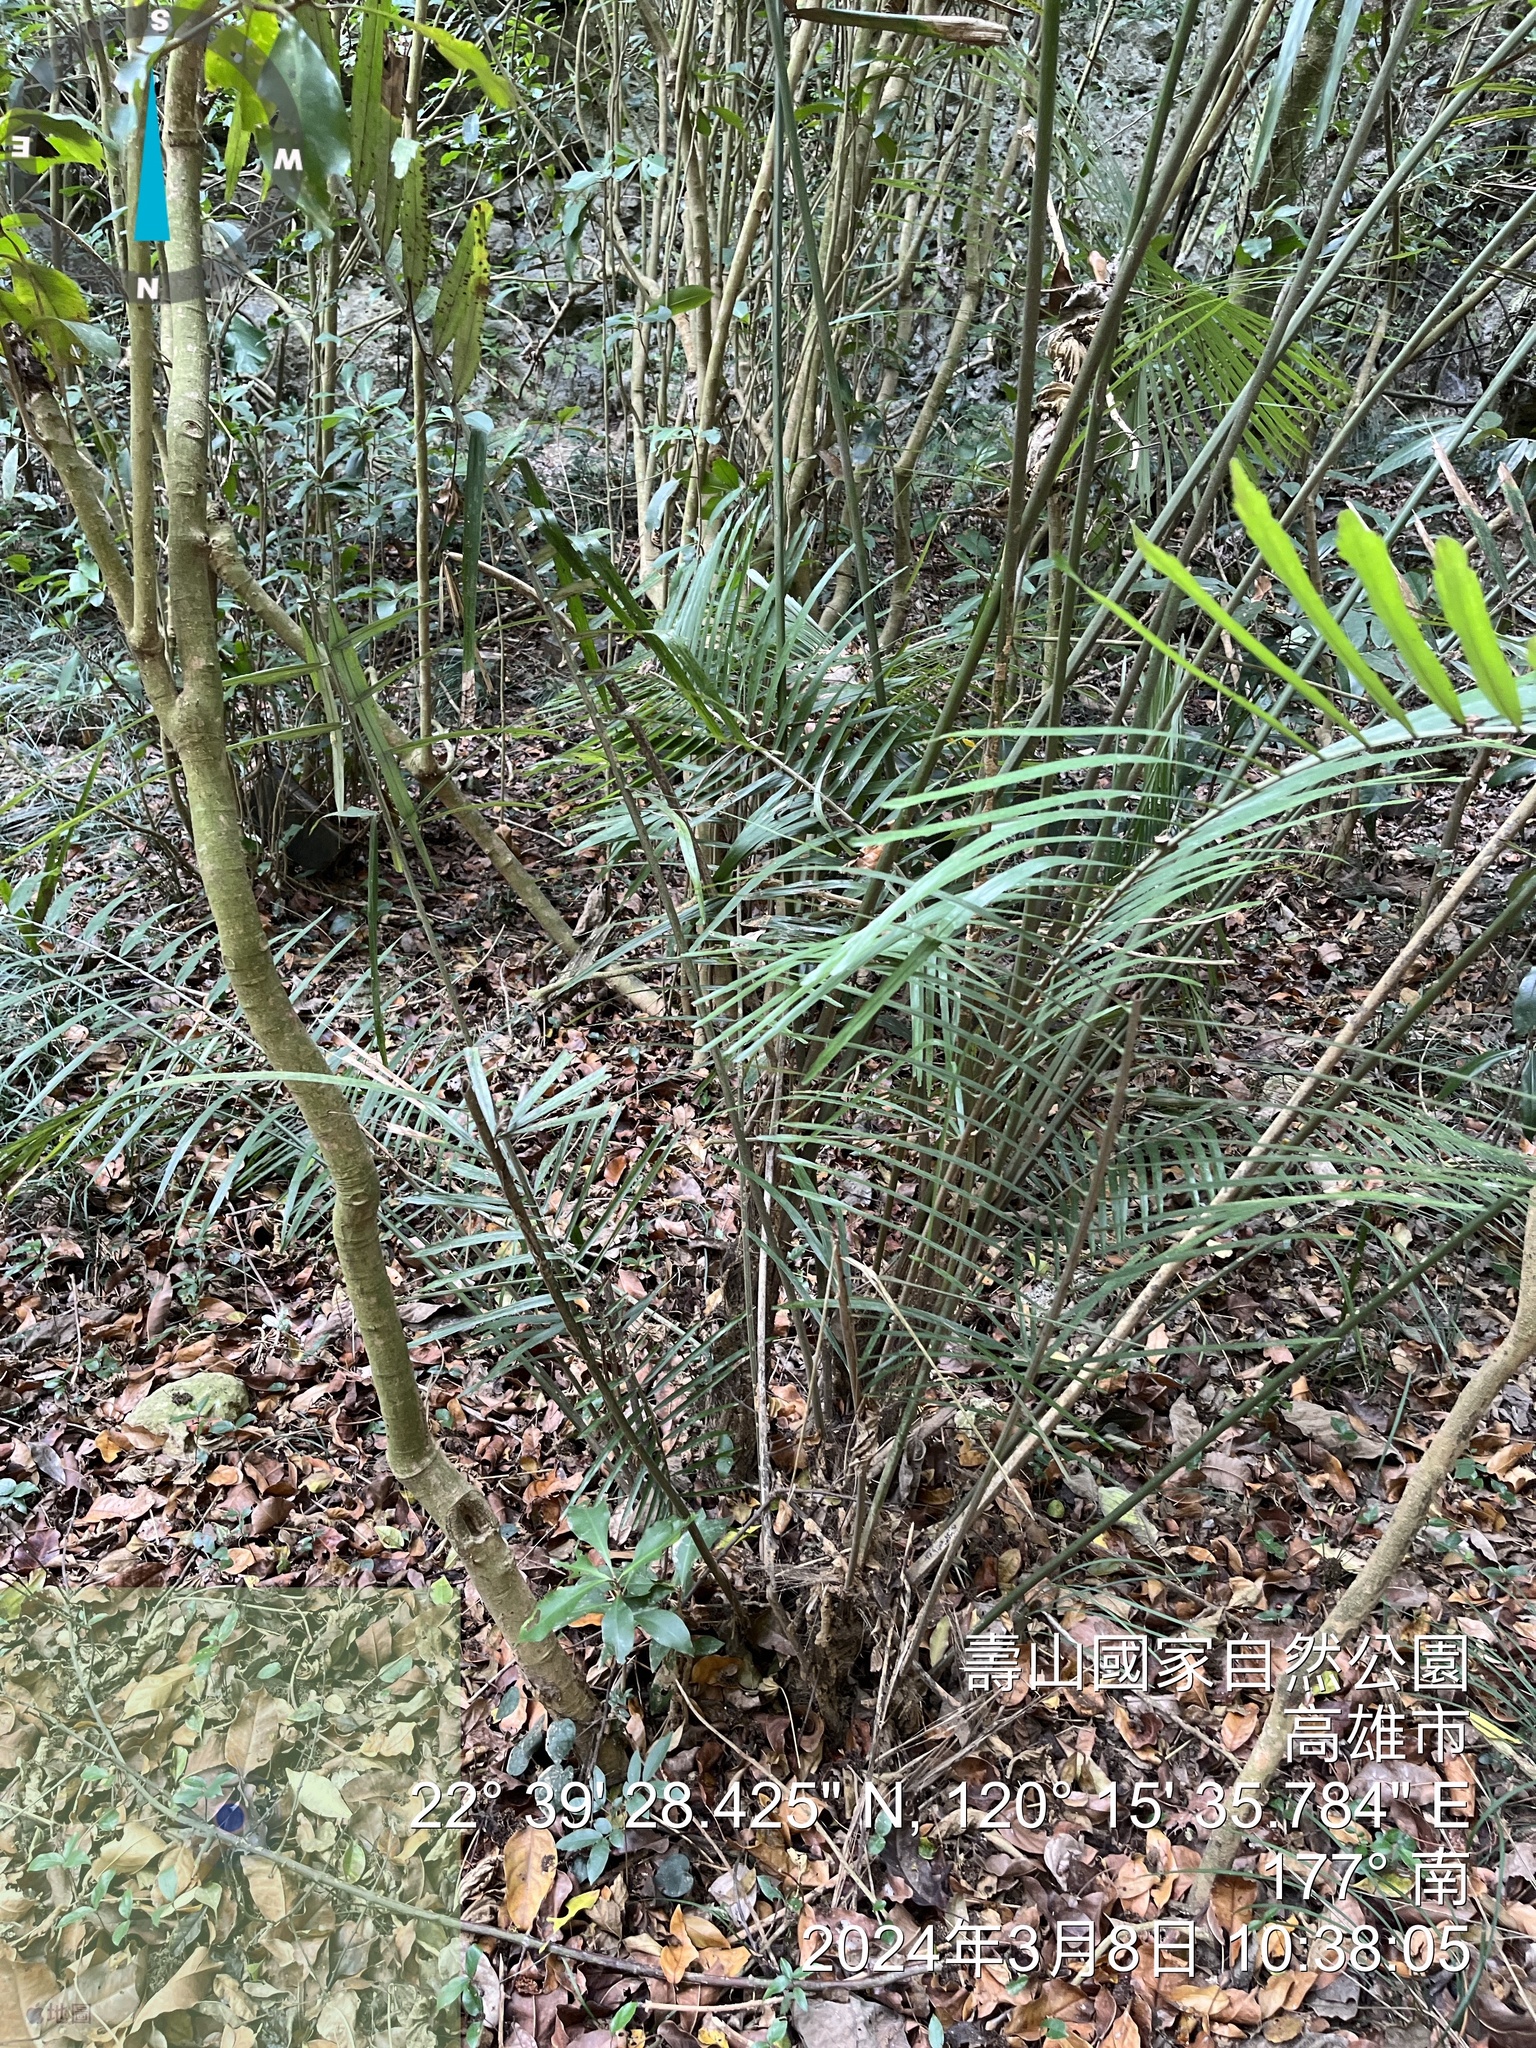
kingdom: Plantae
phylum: Tracheophyta
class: Liliopsida
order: Arecales
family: Arecaceae
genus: Arenga
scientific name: Arenga engleri
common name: Formosan sugar palm
